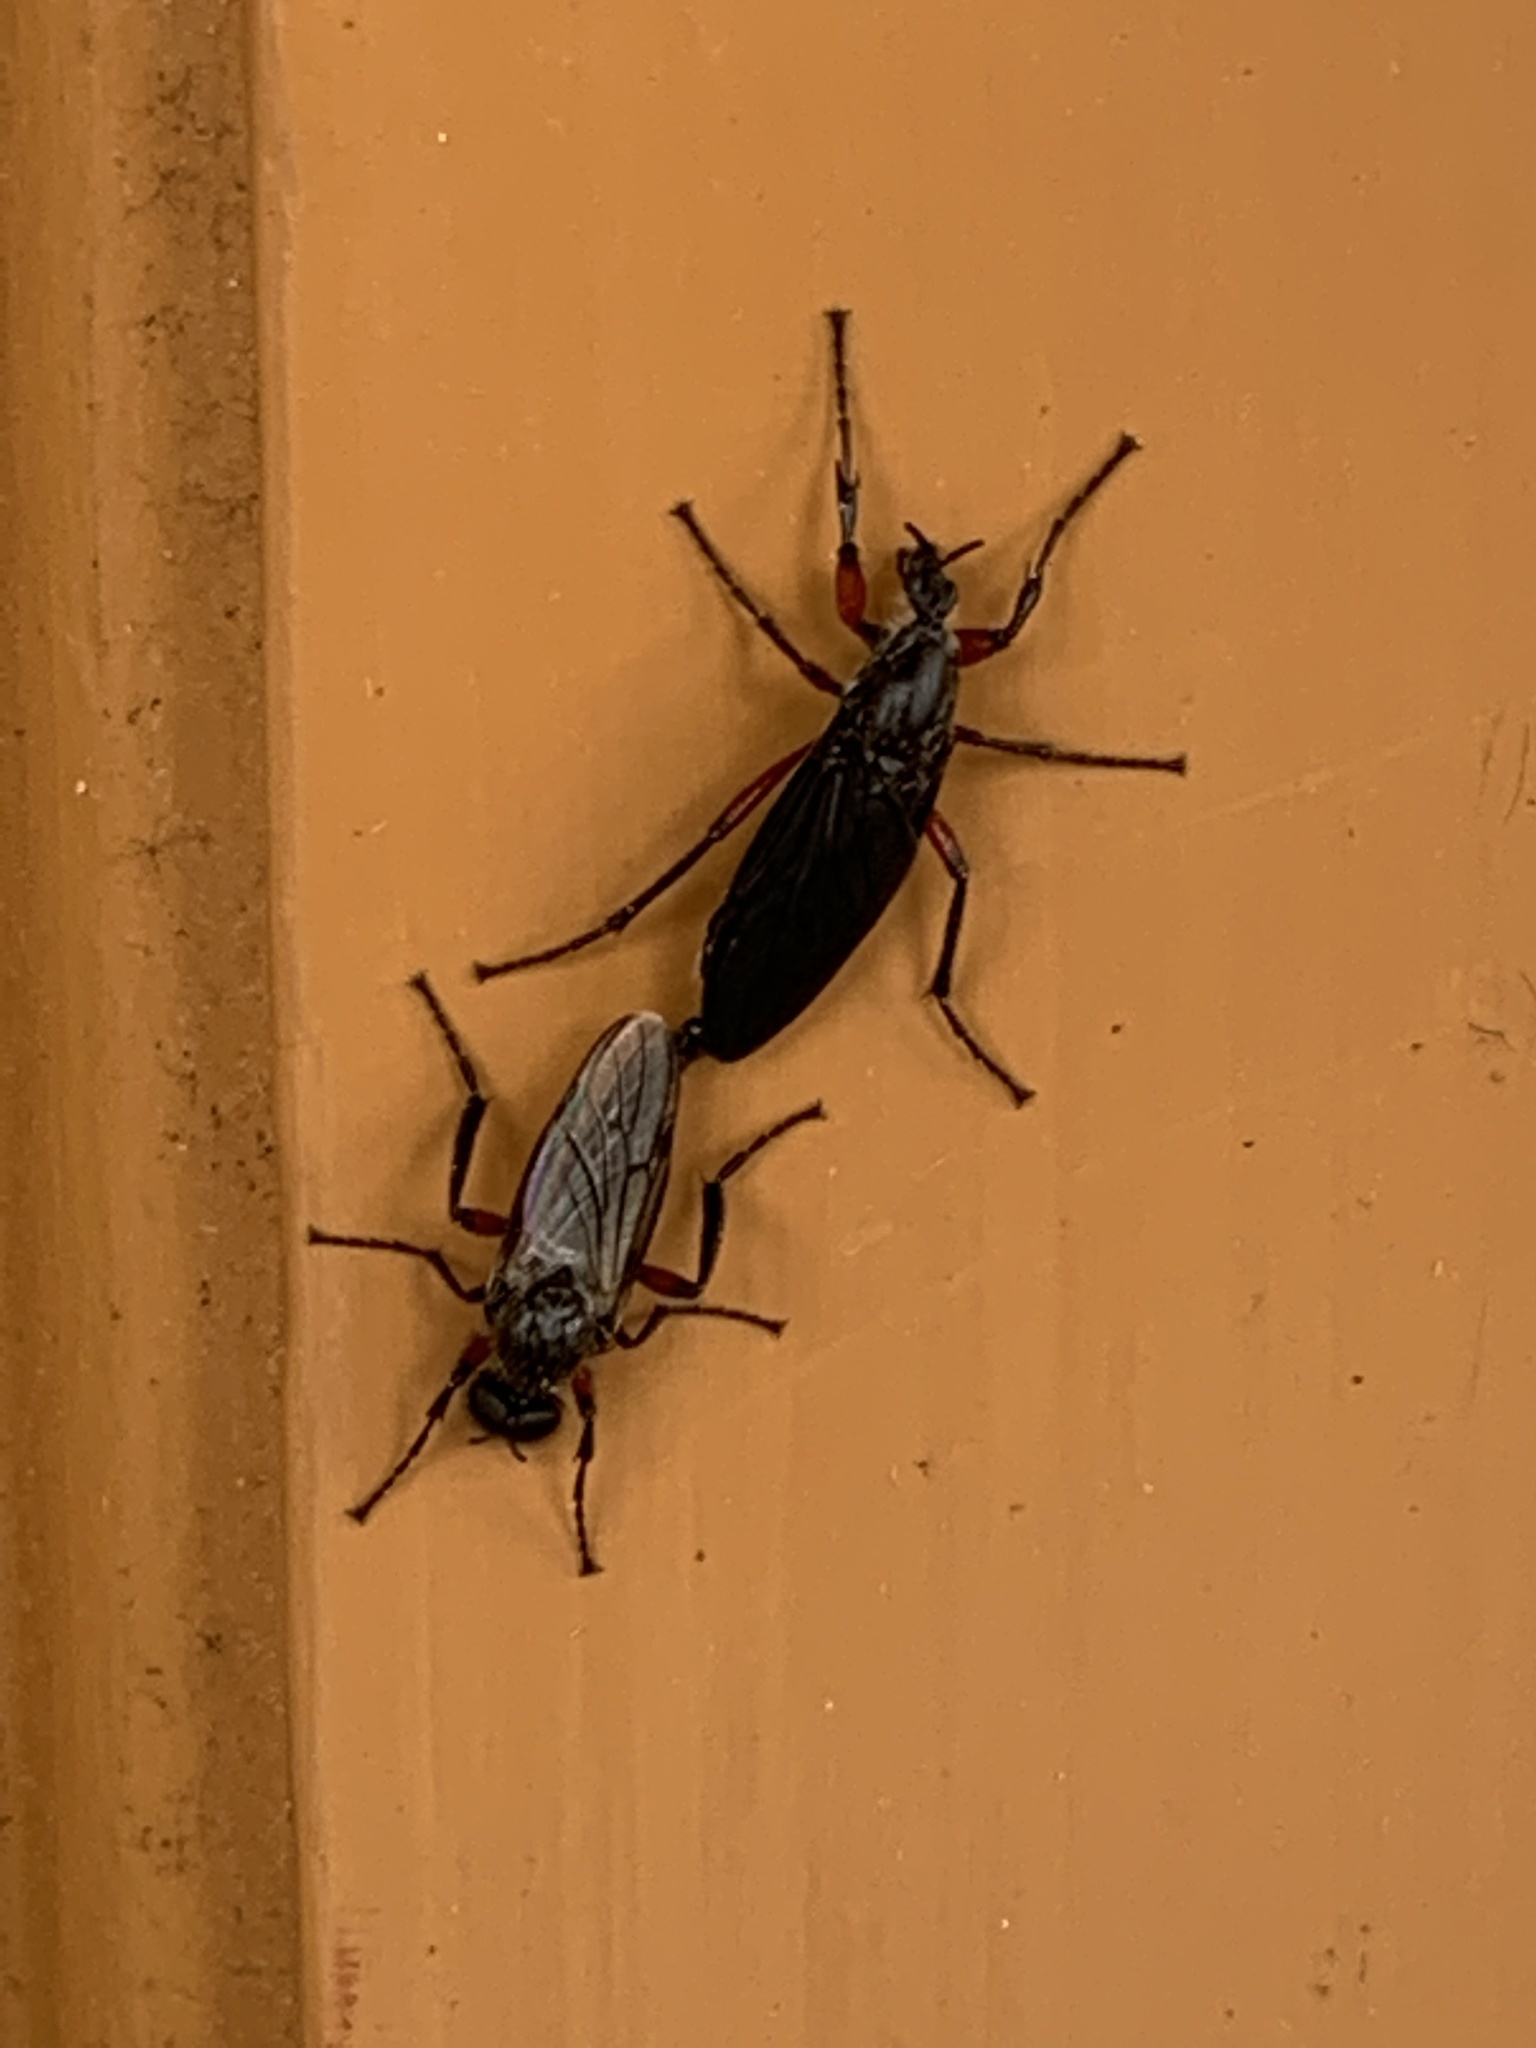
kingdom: Animalia
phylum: Arthropoda
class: Insecta
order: Diptera
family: Bibionidae
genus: Bibio
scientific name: Bibio femoratus
